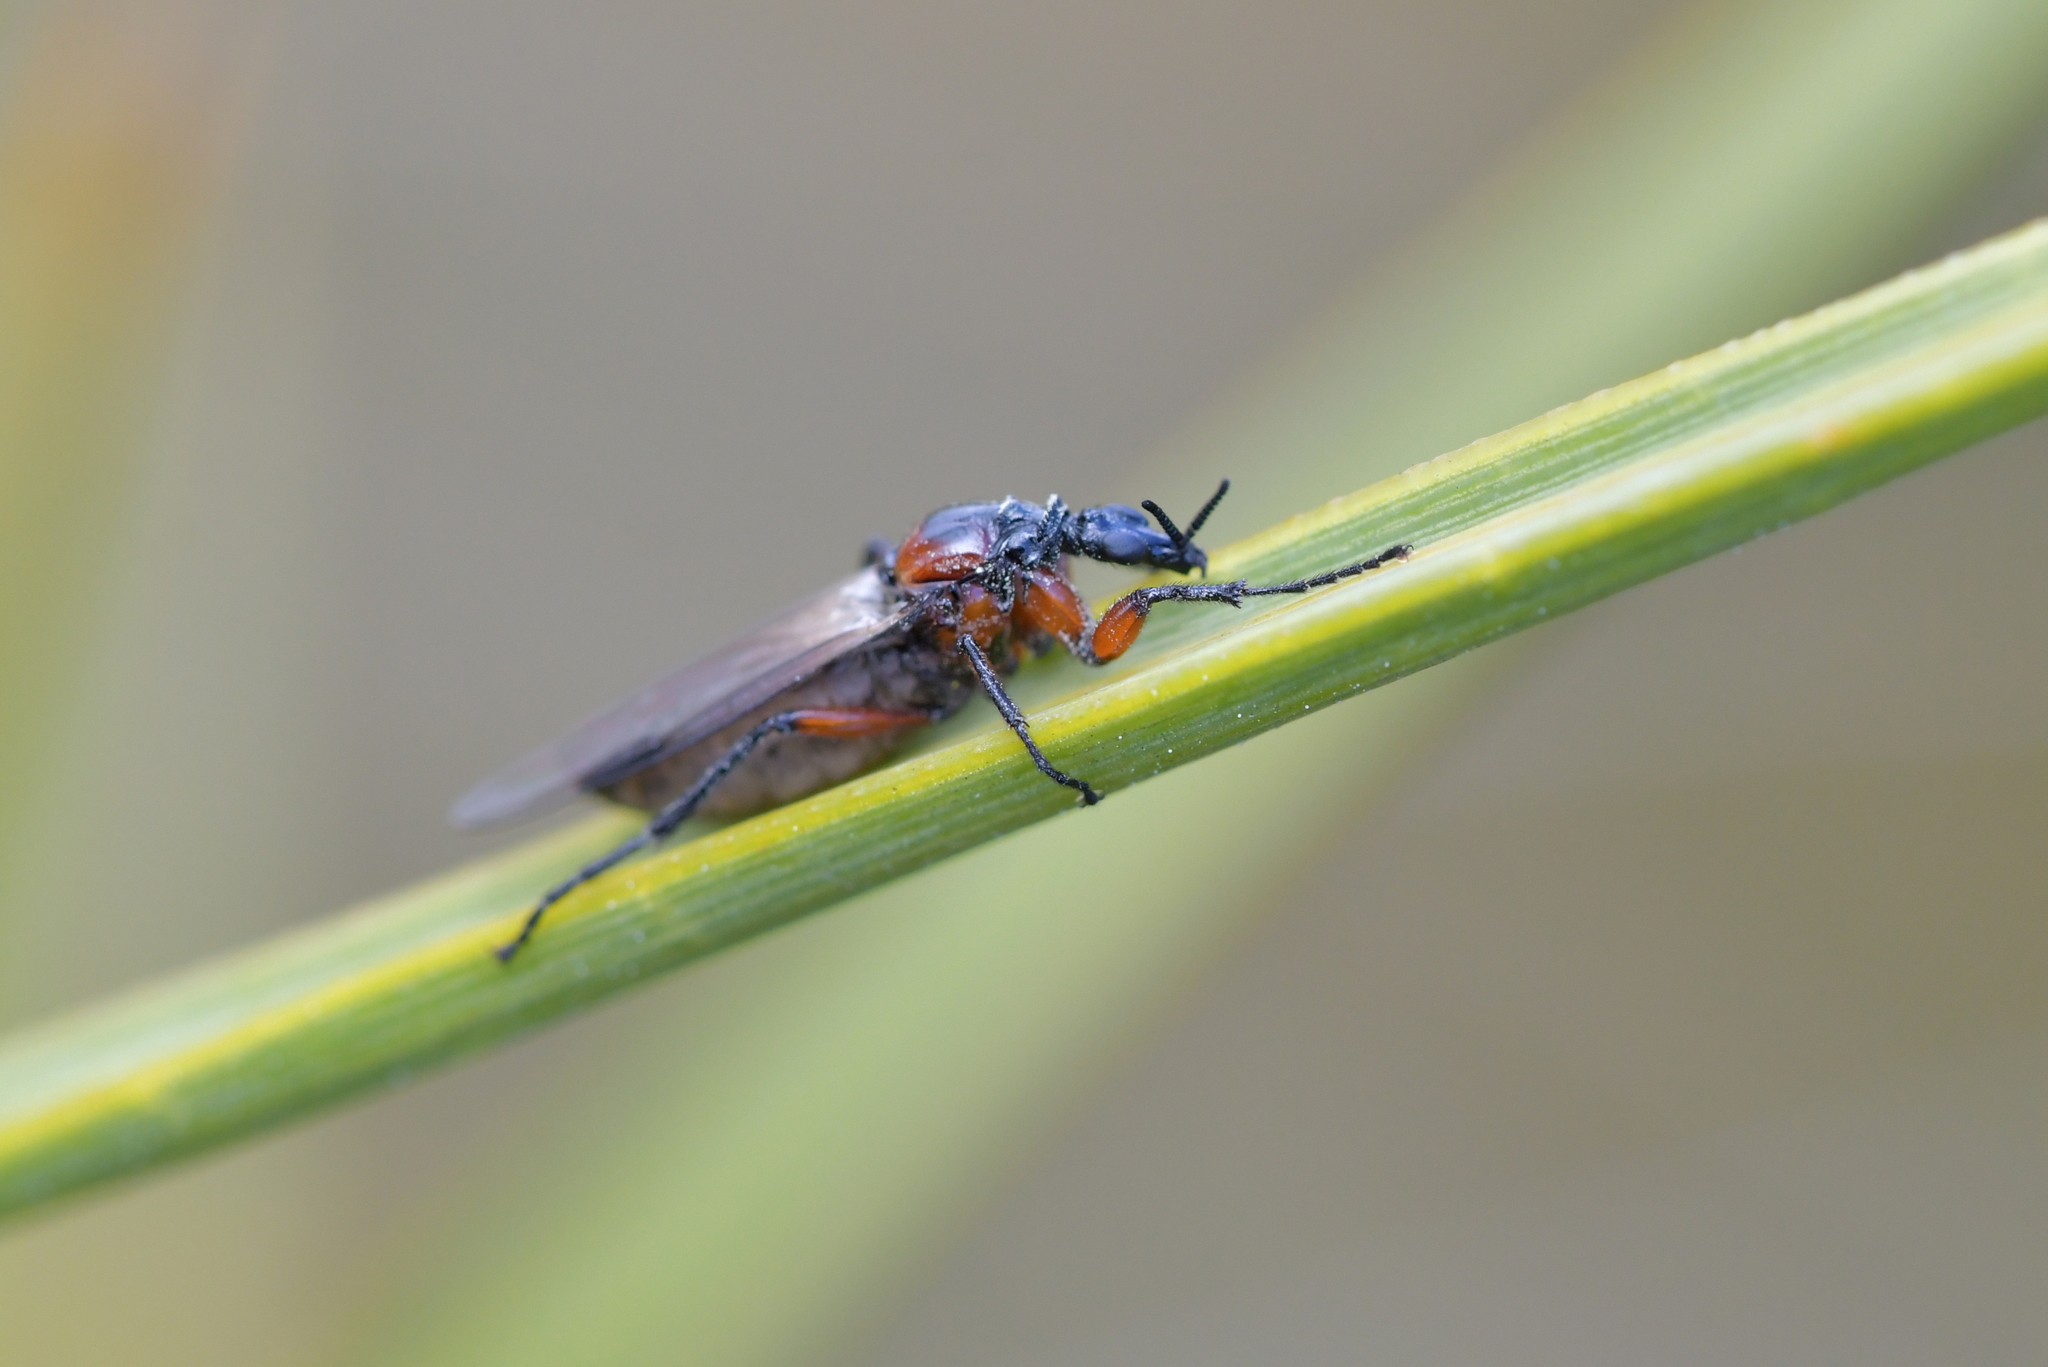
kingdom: Animalia
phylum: Arthropoda
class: Insecta
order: Diptera
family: Bibionidae
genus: Dilophus
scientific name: Dilophus nigrostigma
